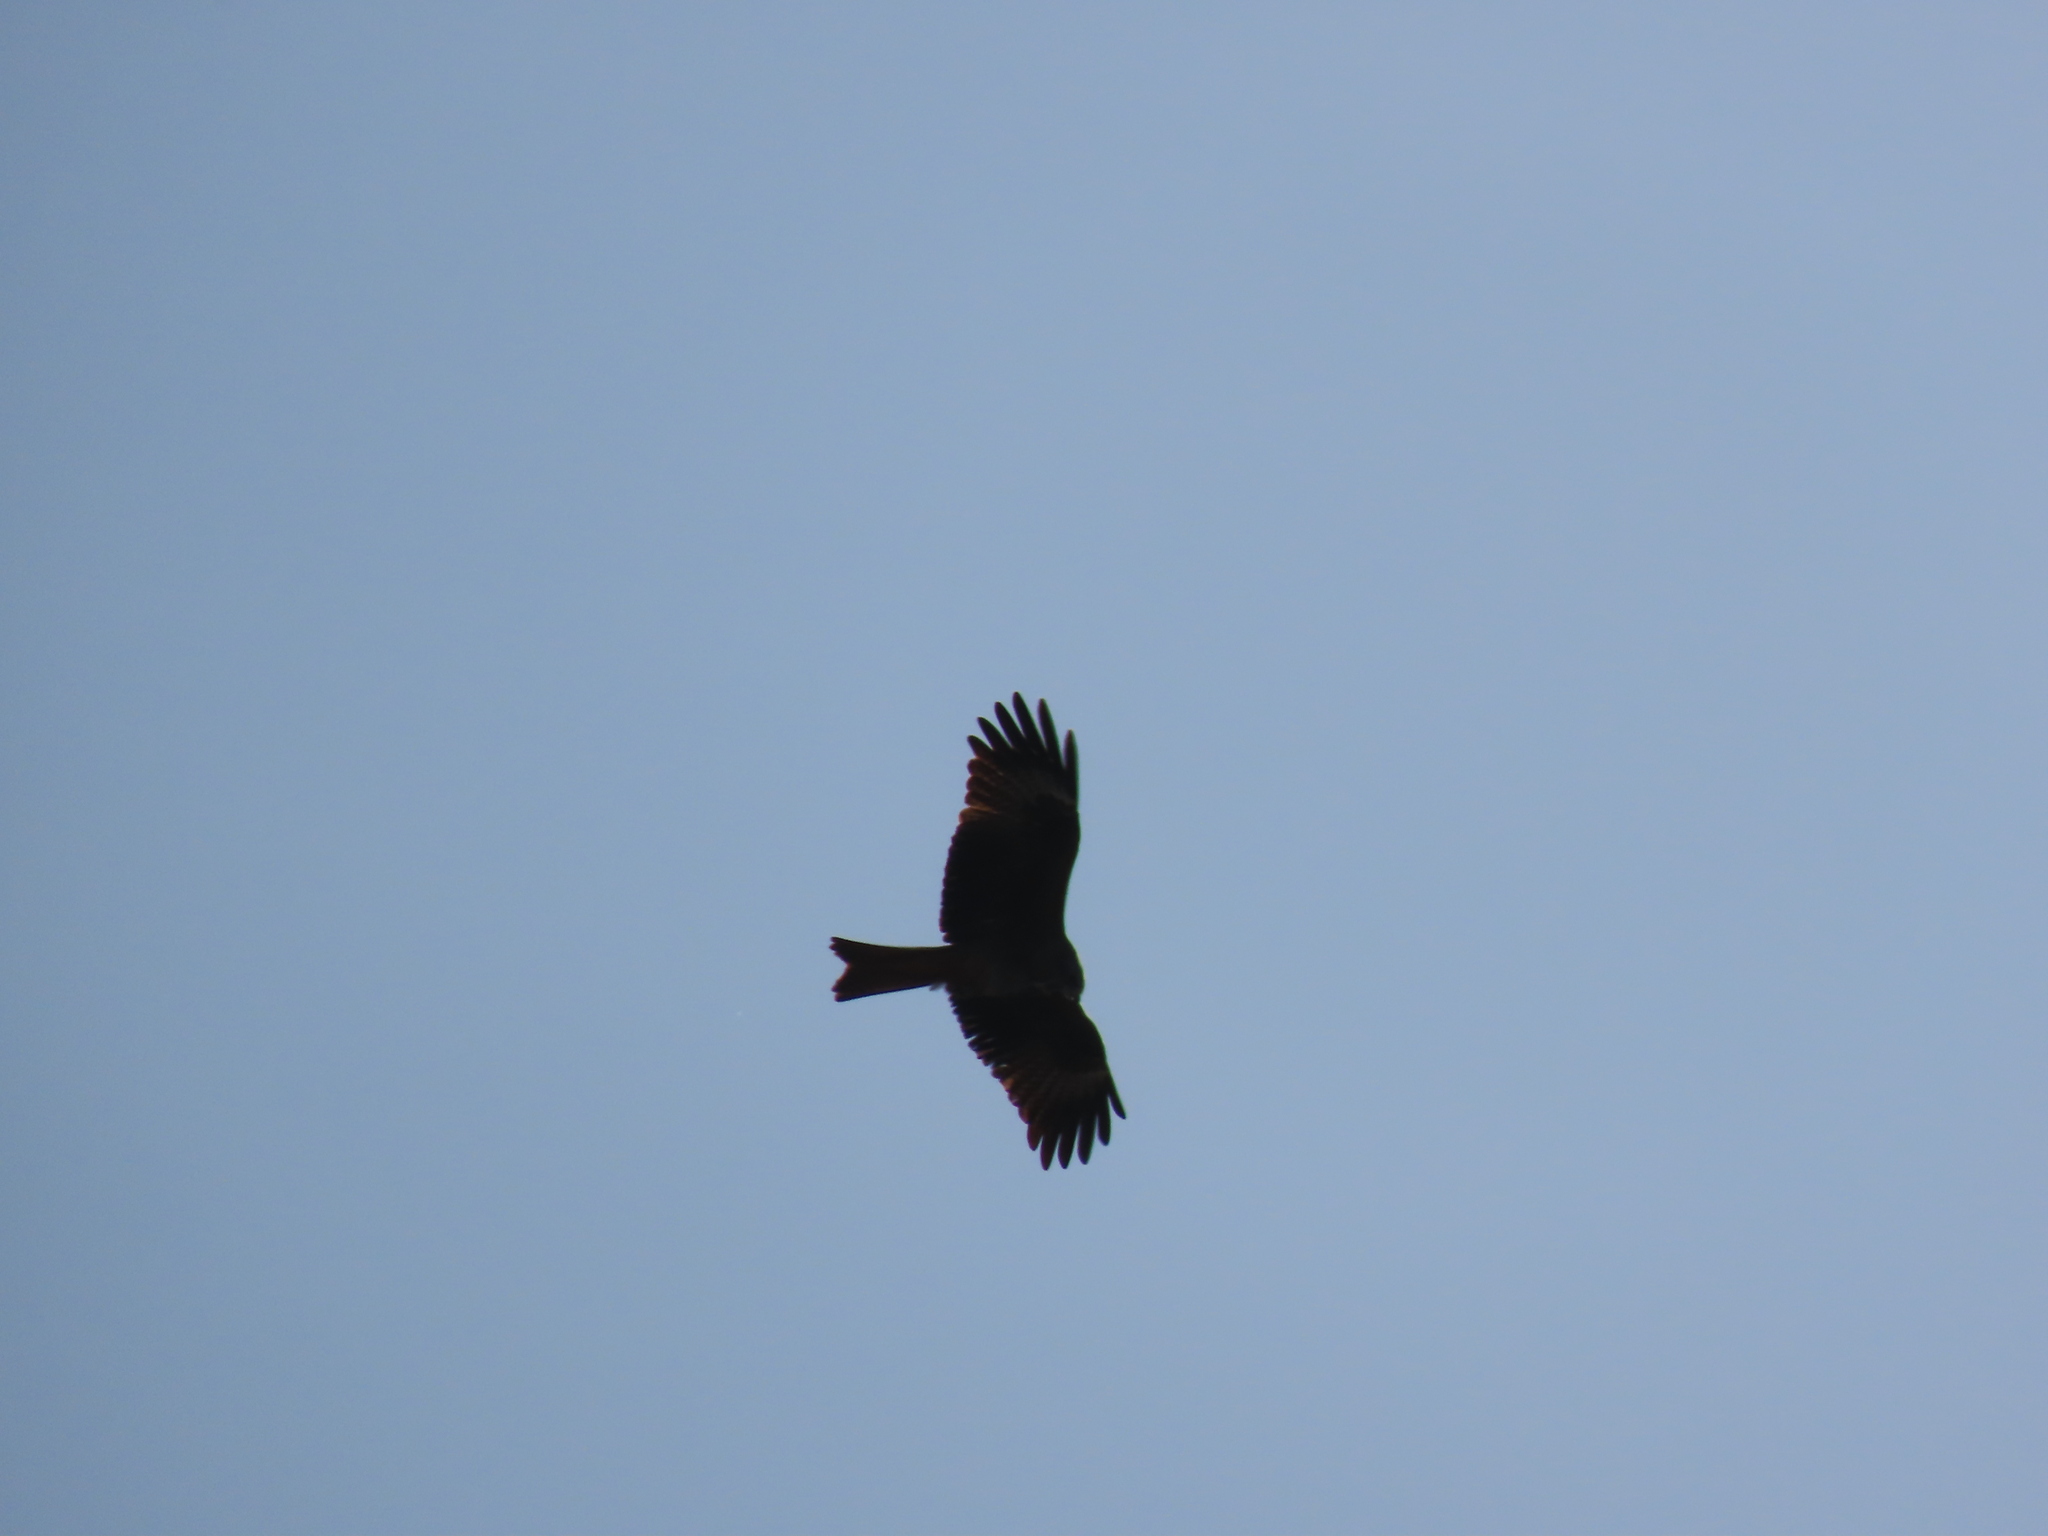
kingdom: Animalia
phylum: Chordata
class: Aves
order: Accipitriformes
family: Accipitridae
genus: Milvus
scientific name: Milvus migrans
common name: Black kite
